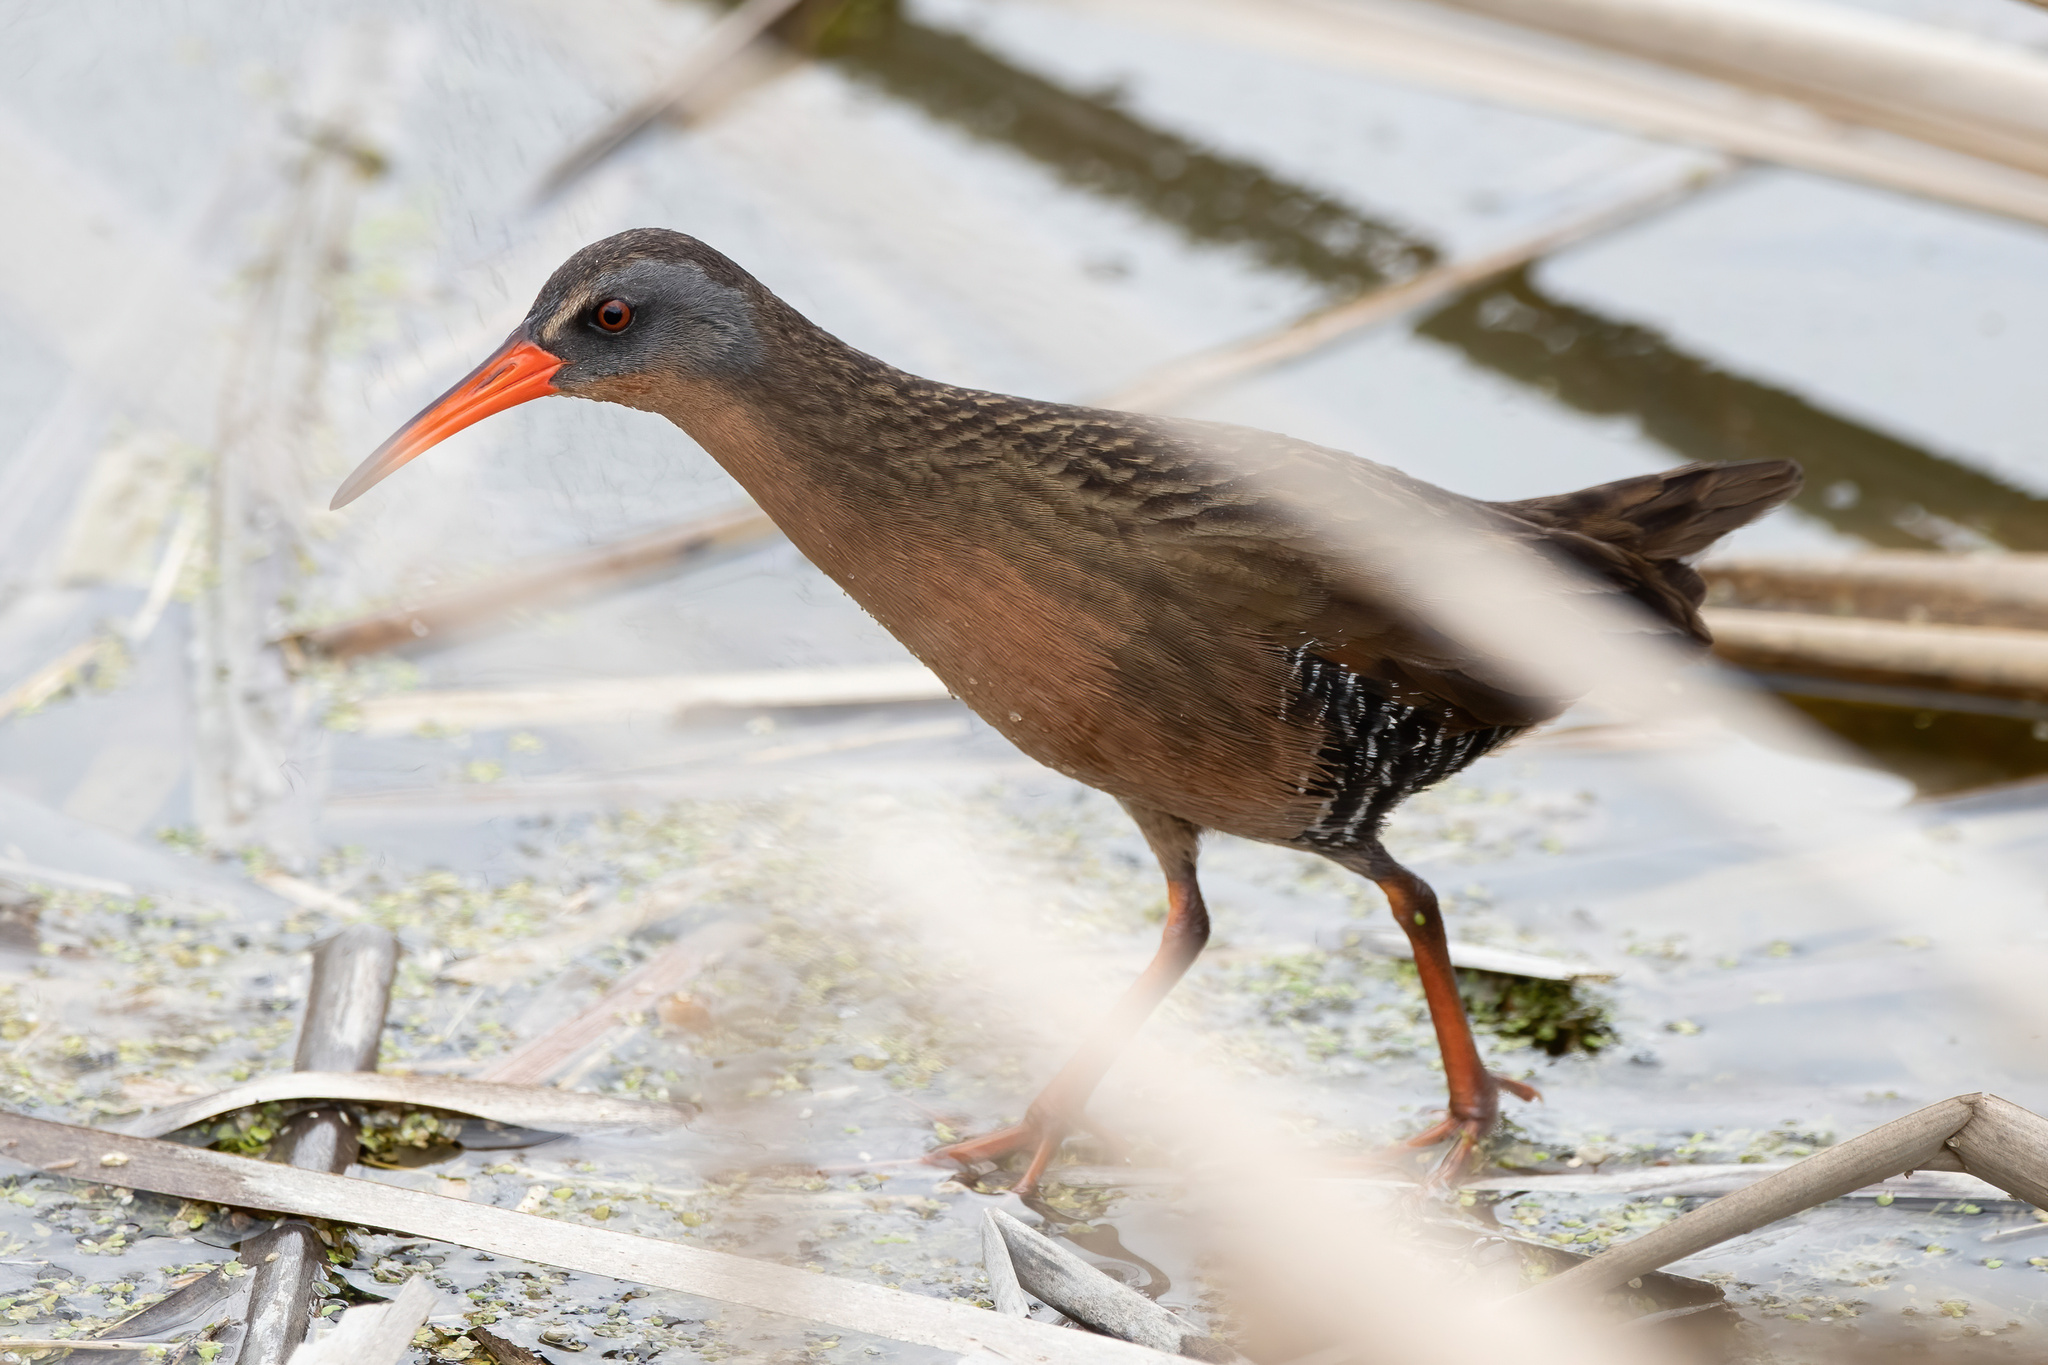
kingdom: Animalia
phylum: Chordata
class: Aves
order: Gruiformes
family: Rallidae
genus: Rallus
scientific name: Rallus limicola
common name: Virginia rail
